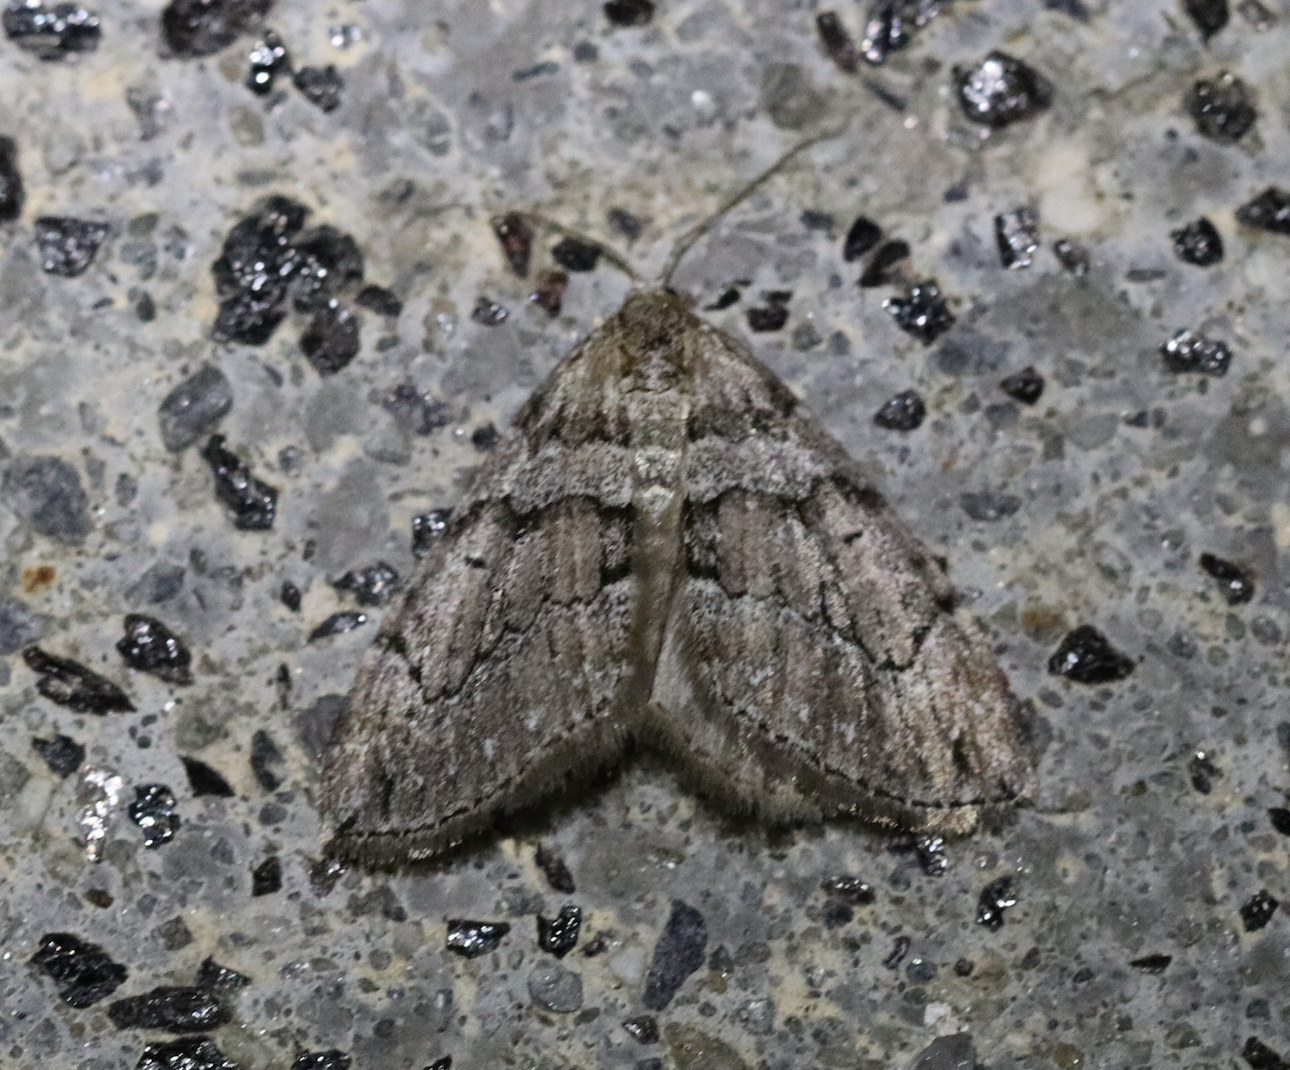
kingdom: Animalia
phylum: Arthropoda
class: Insecta
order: Lepidoptera
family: Geometridae
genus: Thera
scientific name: Thera cognata
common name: Chestnut-coloured carpet
